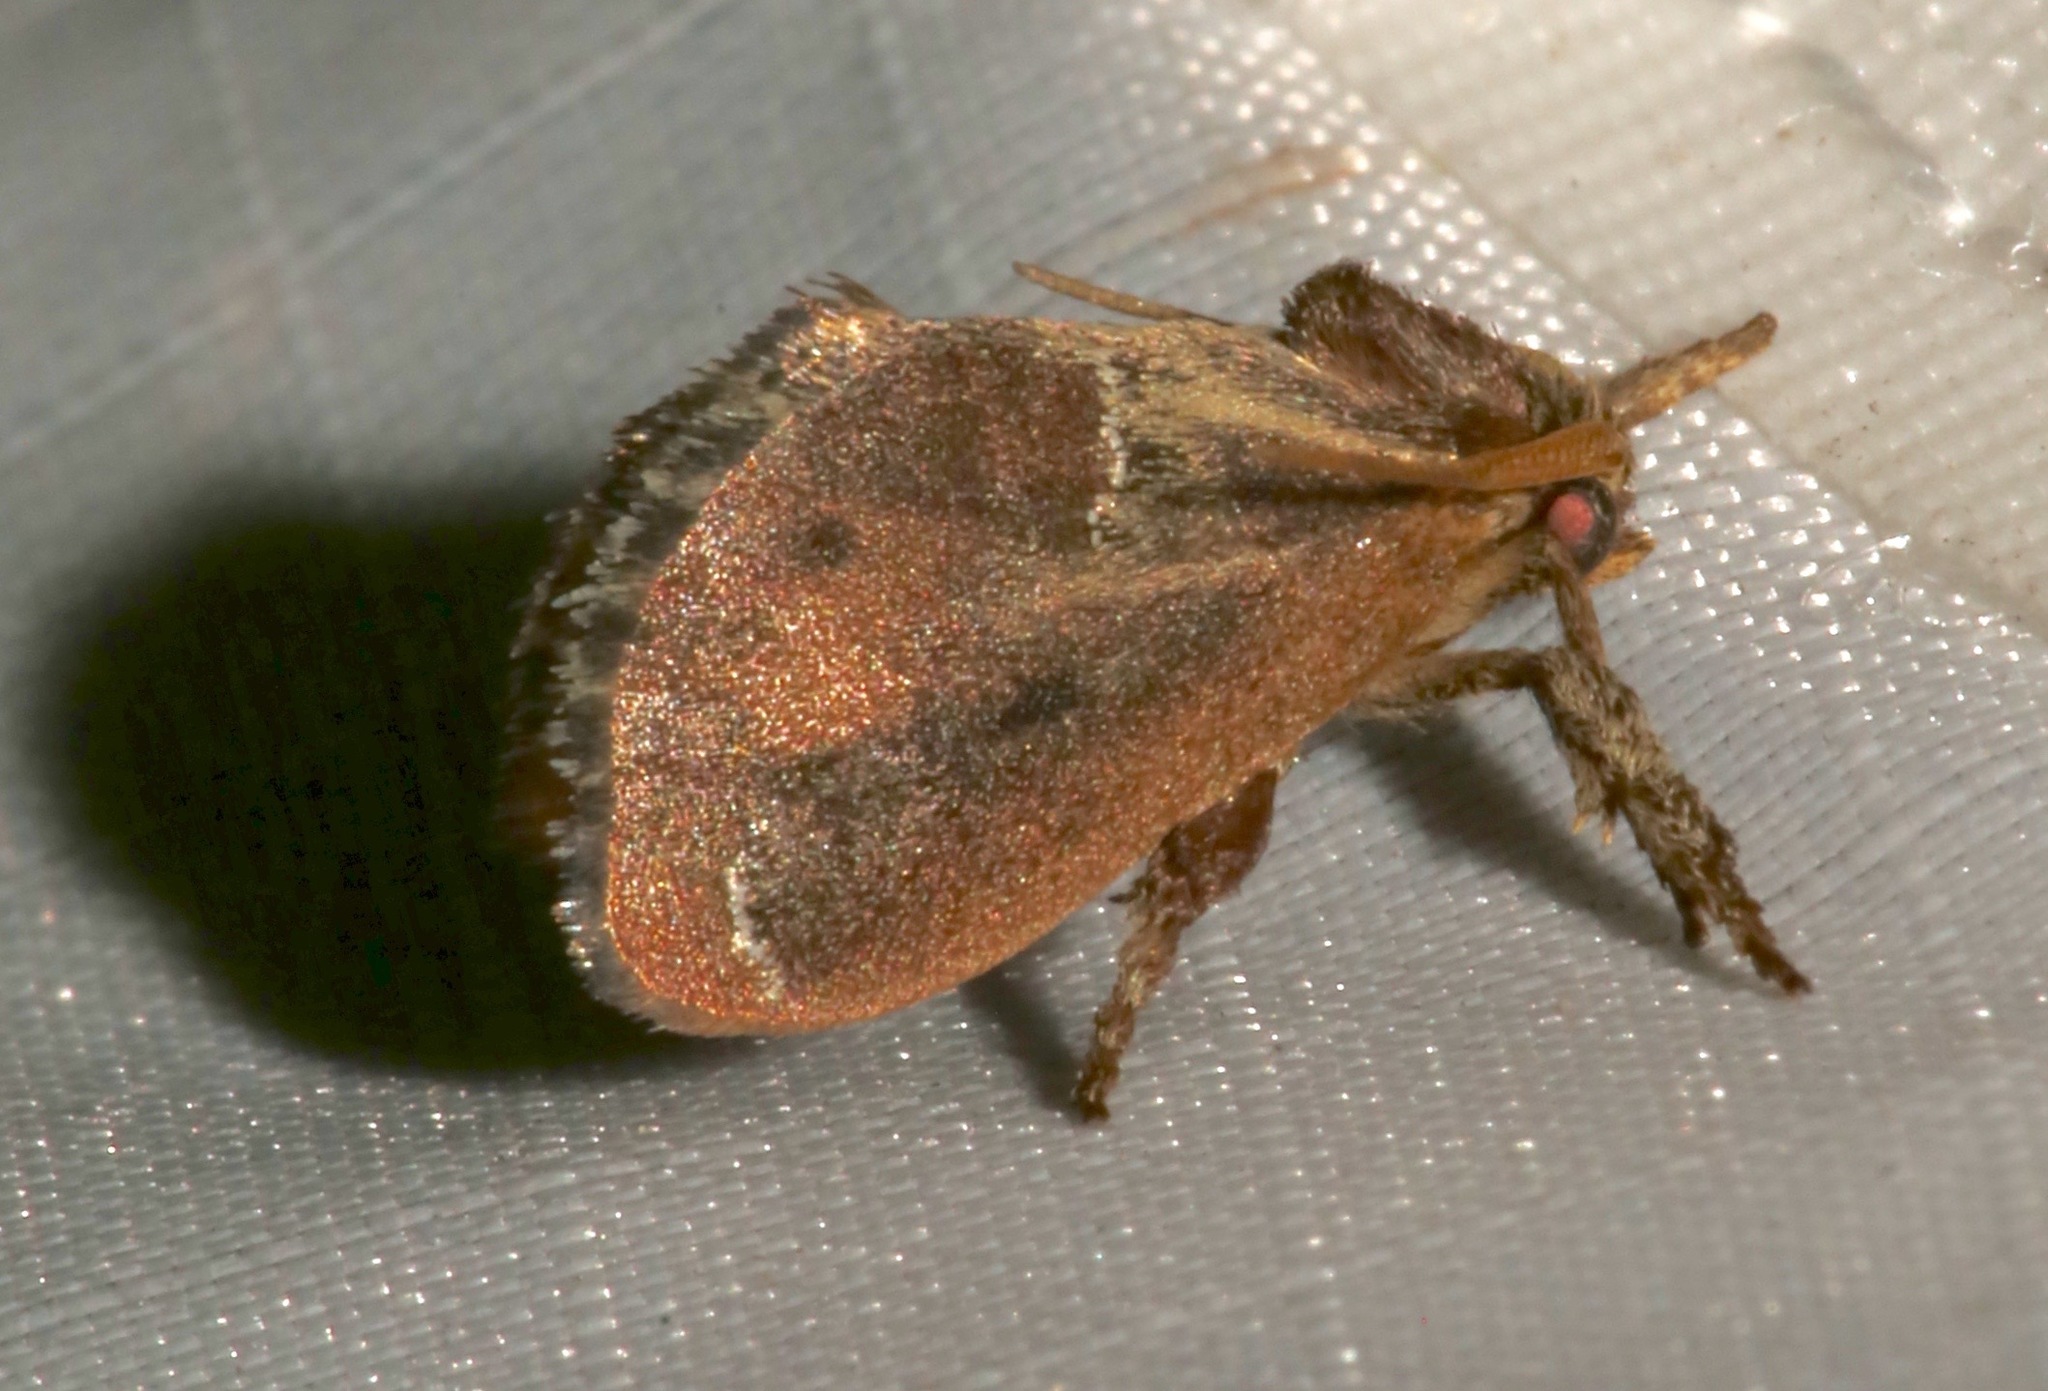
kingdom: Animalia
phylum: Arthropoda
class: Insecta
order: Lepidoptera
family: Limacodidae
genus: Adoneta
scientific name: Adoneta spinuloides
